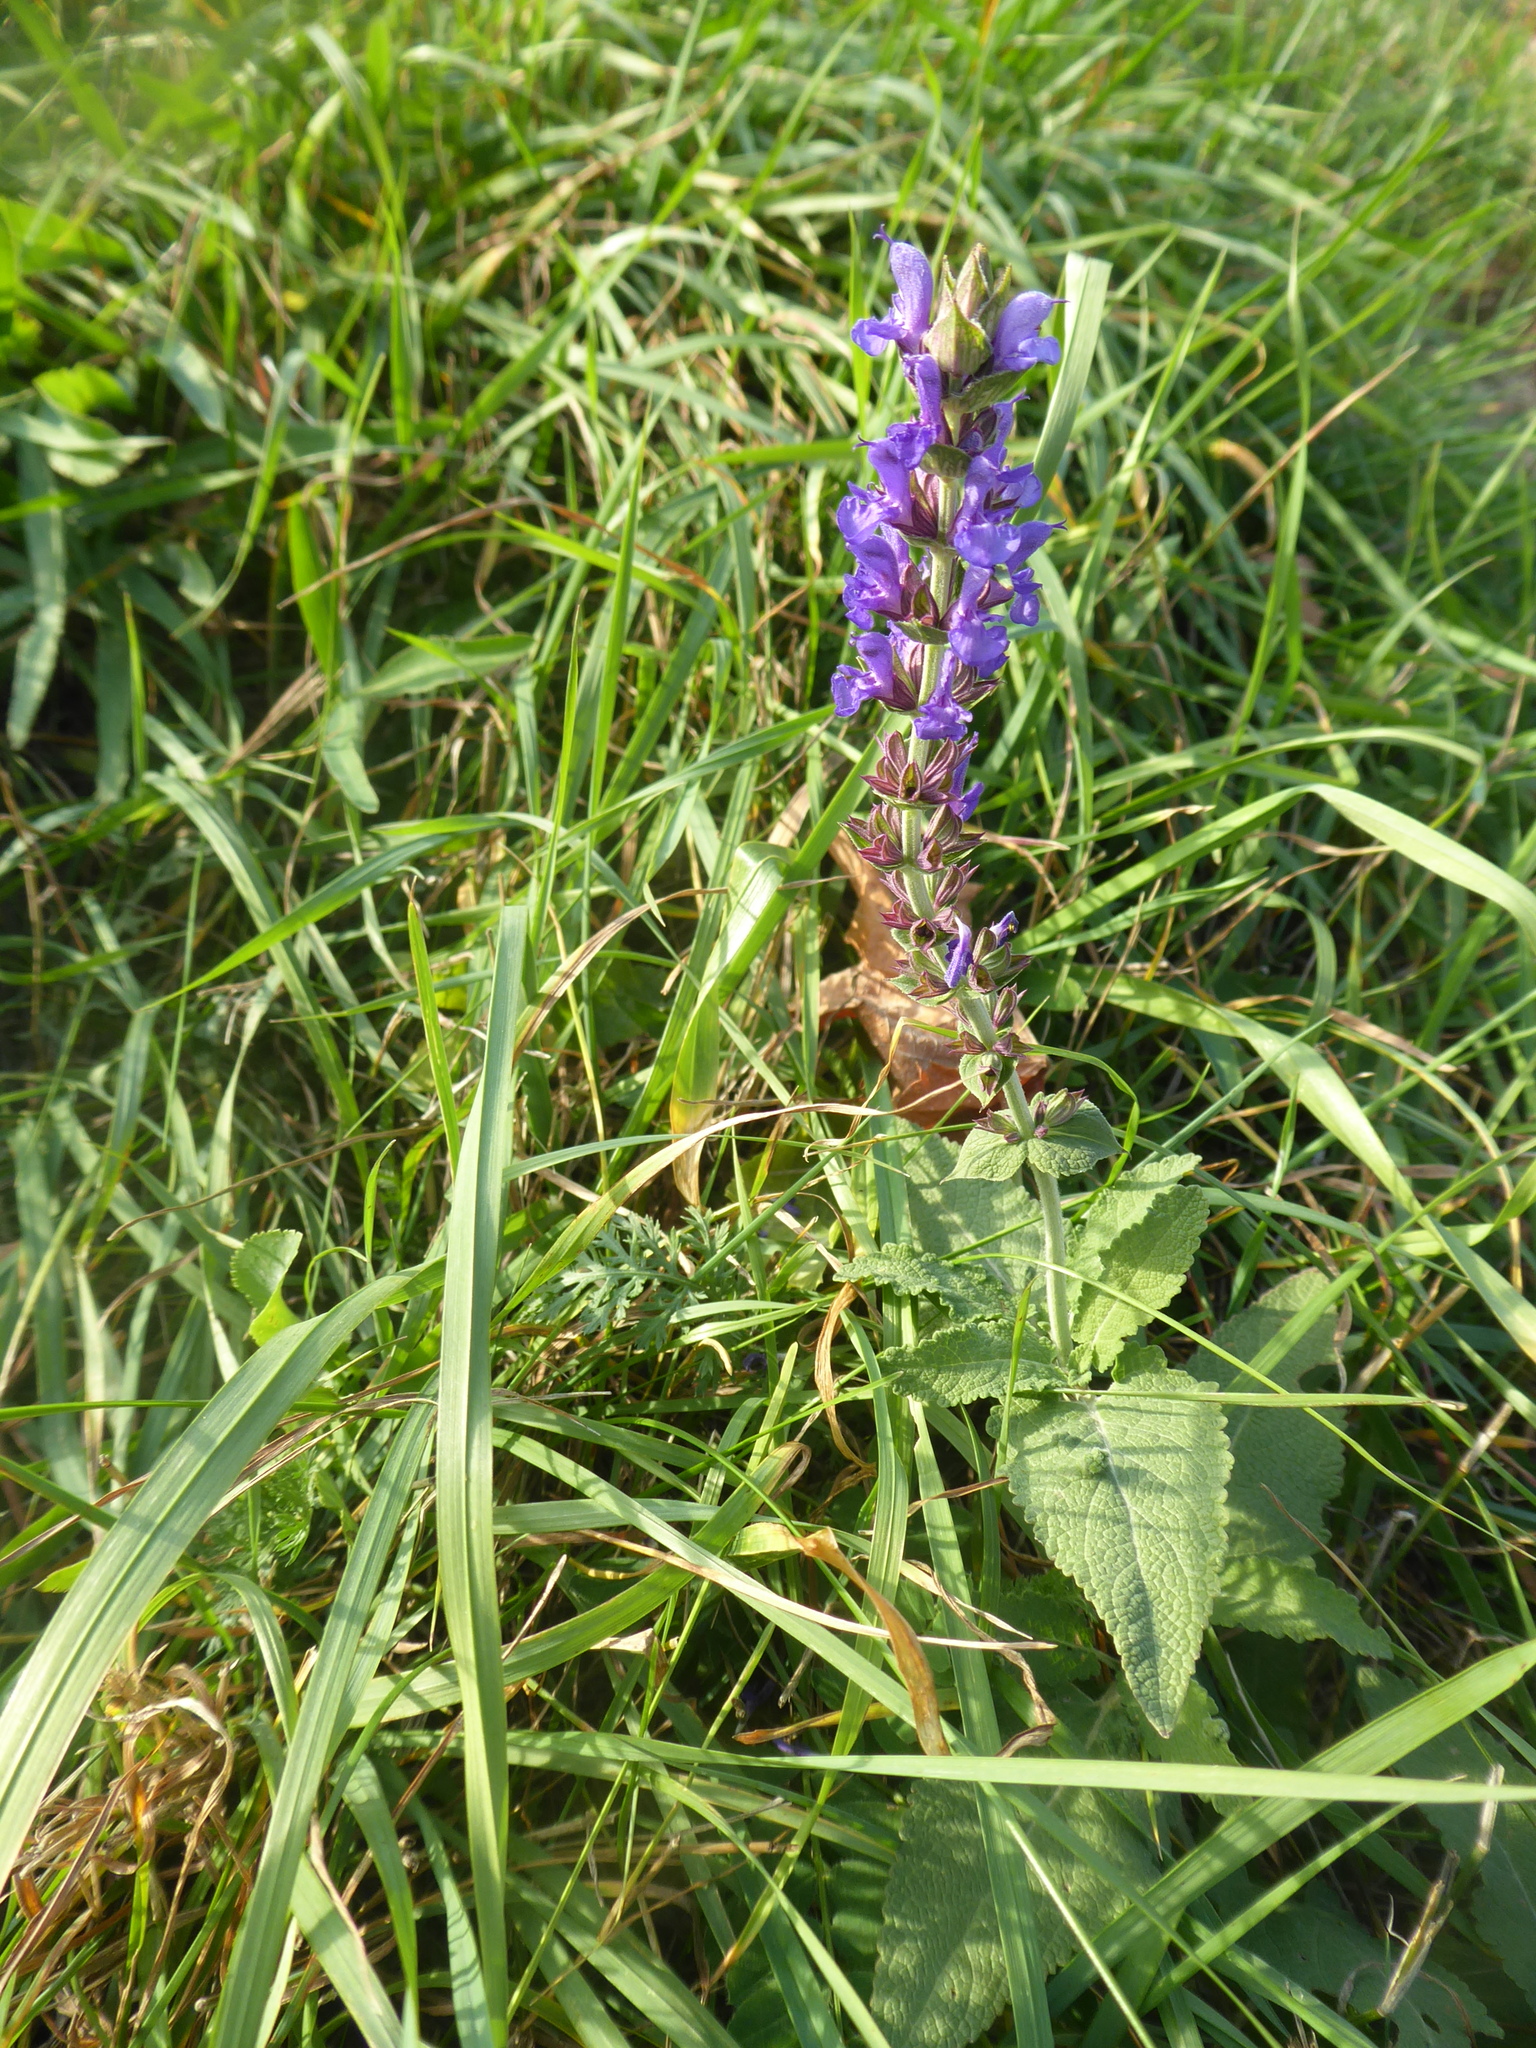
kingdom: Plantae
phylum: Tracheophyta
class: Magnoliopsida
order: Lamiales
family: Lamiaceae
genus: Salvia
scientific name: Salvia pratensis
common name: Meadow sage
